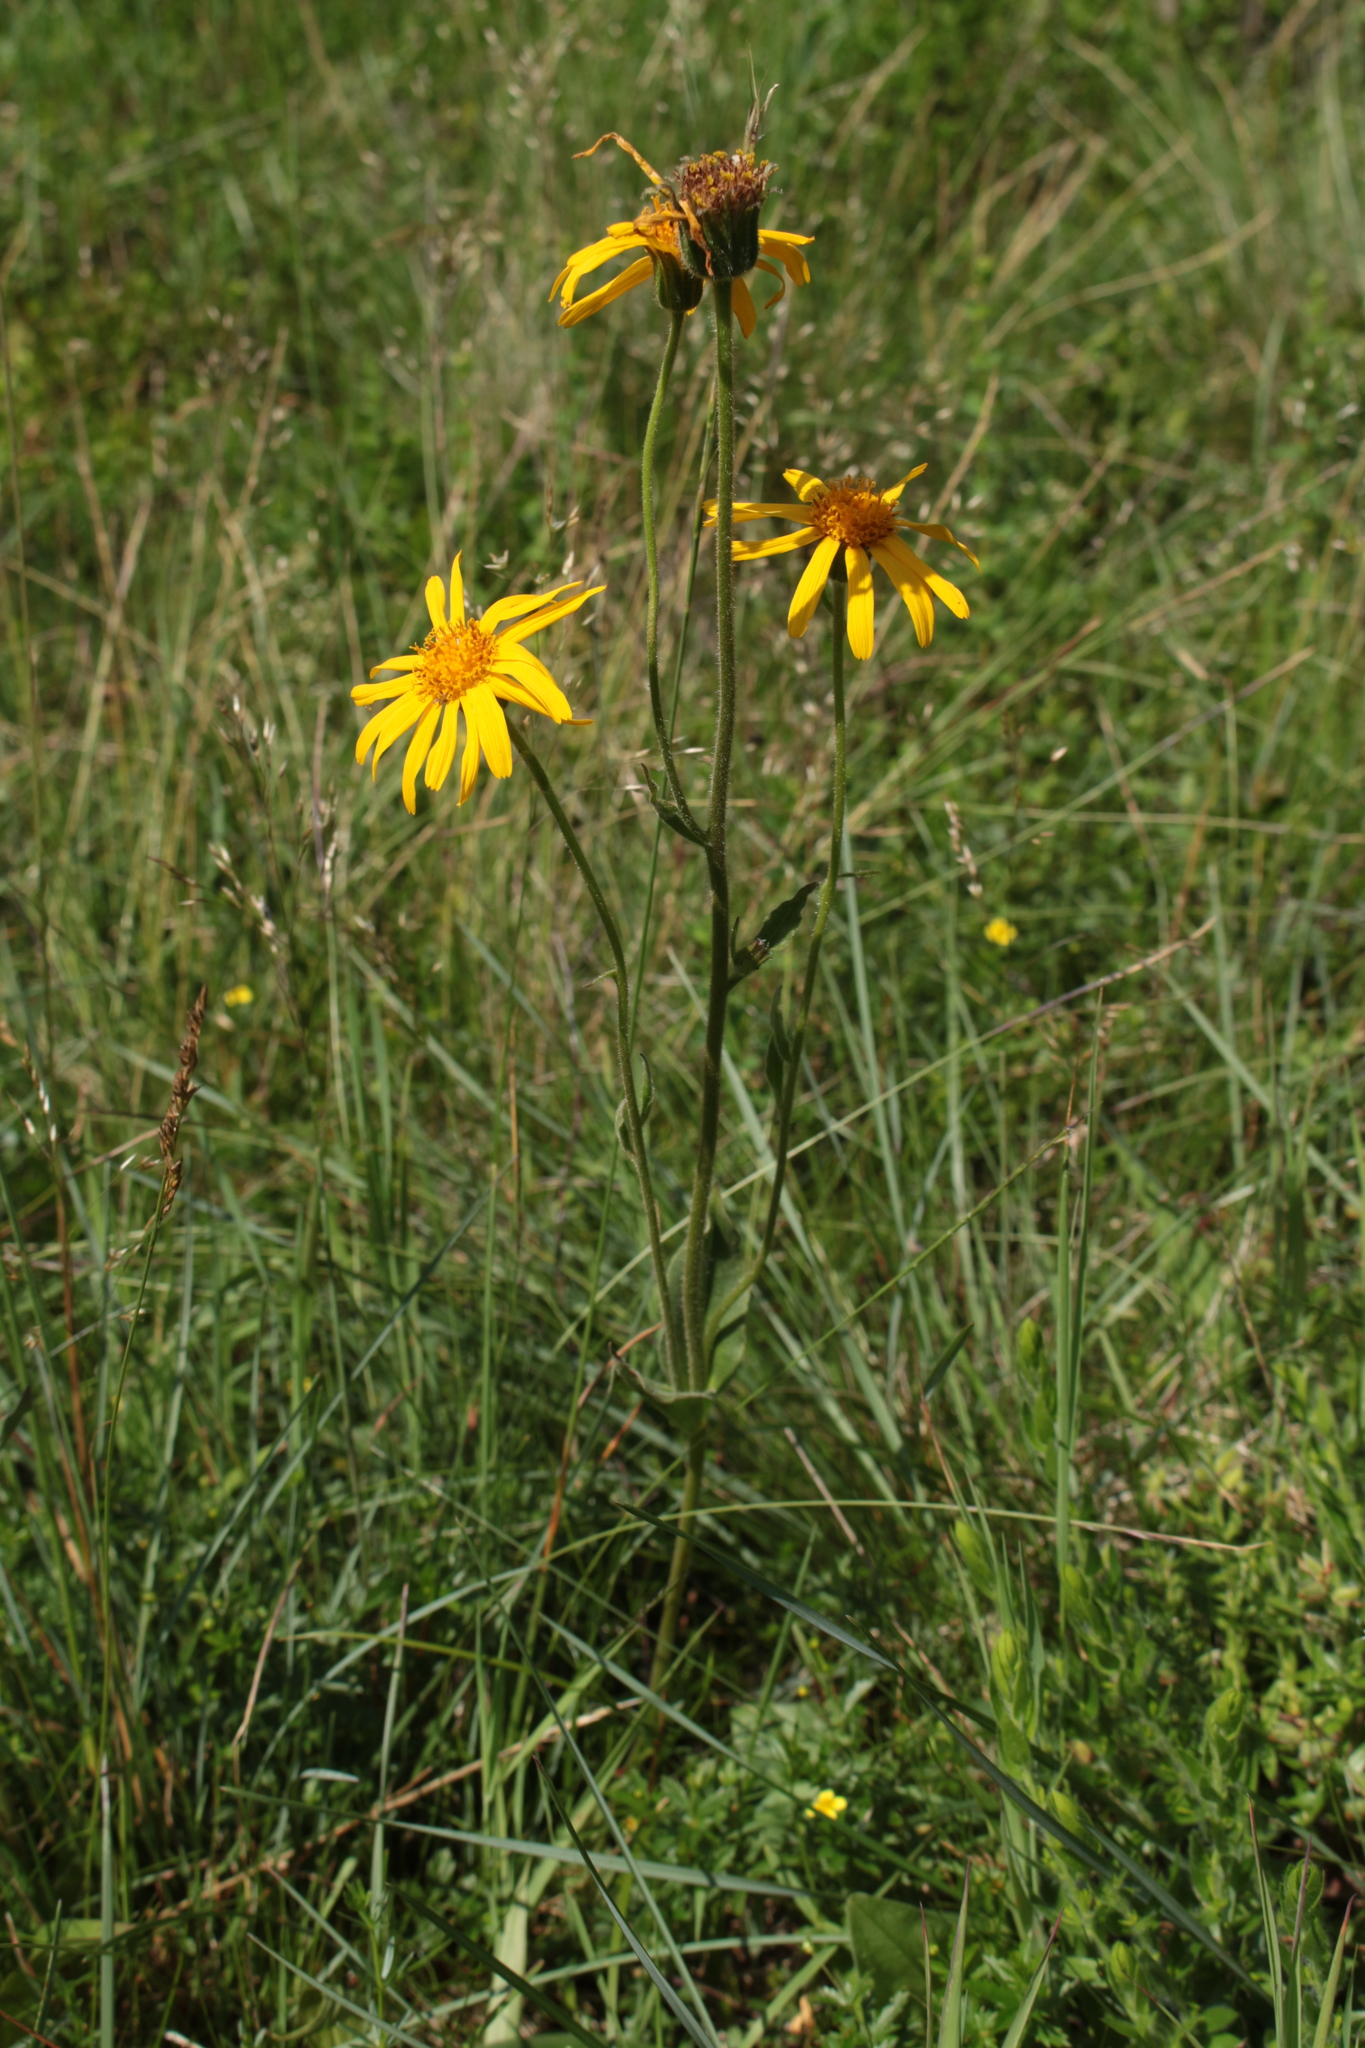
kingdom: Plantae
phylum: Tracheophyta
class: Magnoliopsida
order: Asterales
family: Asteraceae
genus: Arnica
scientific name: Arnica montana
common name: Leopard's bane
